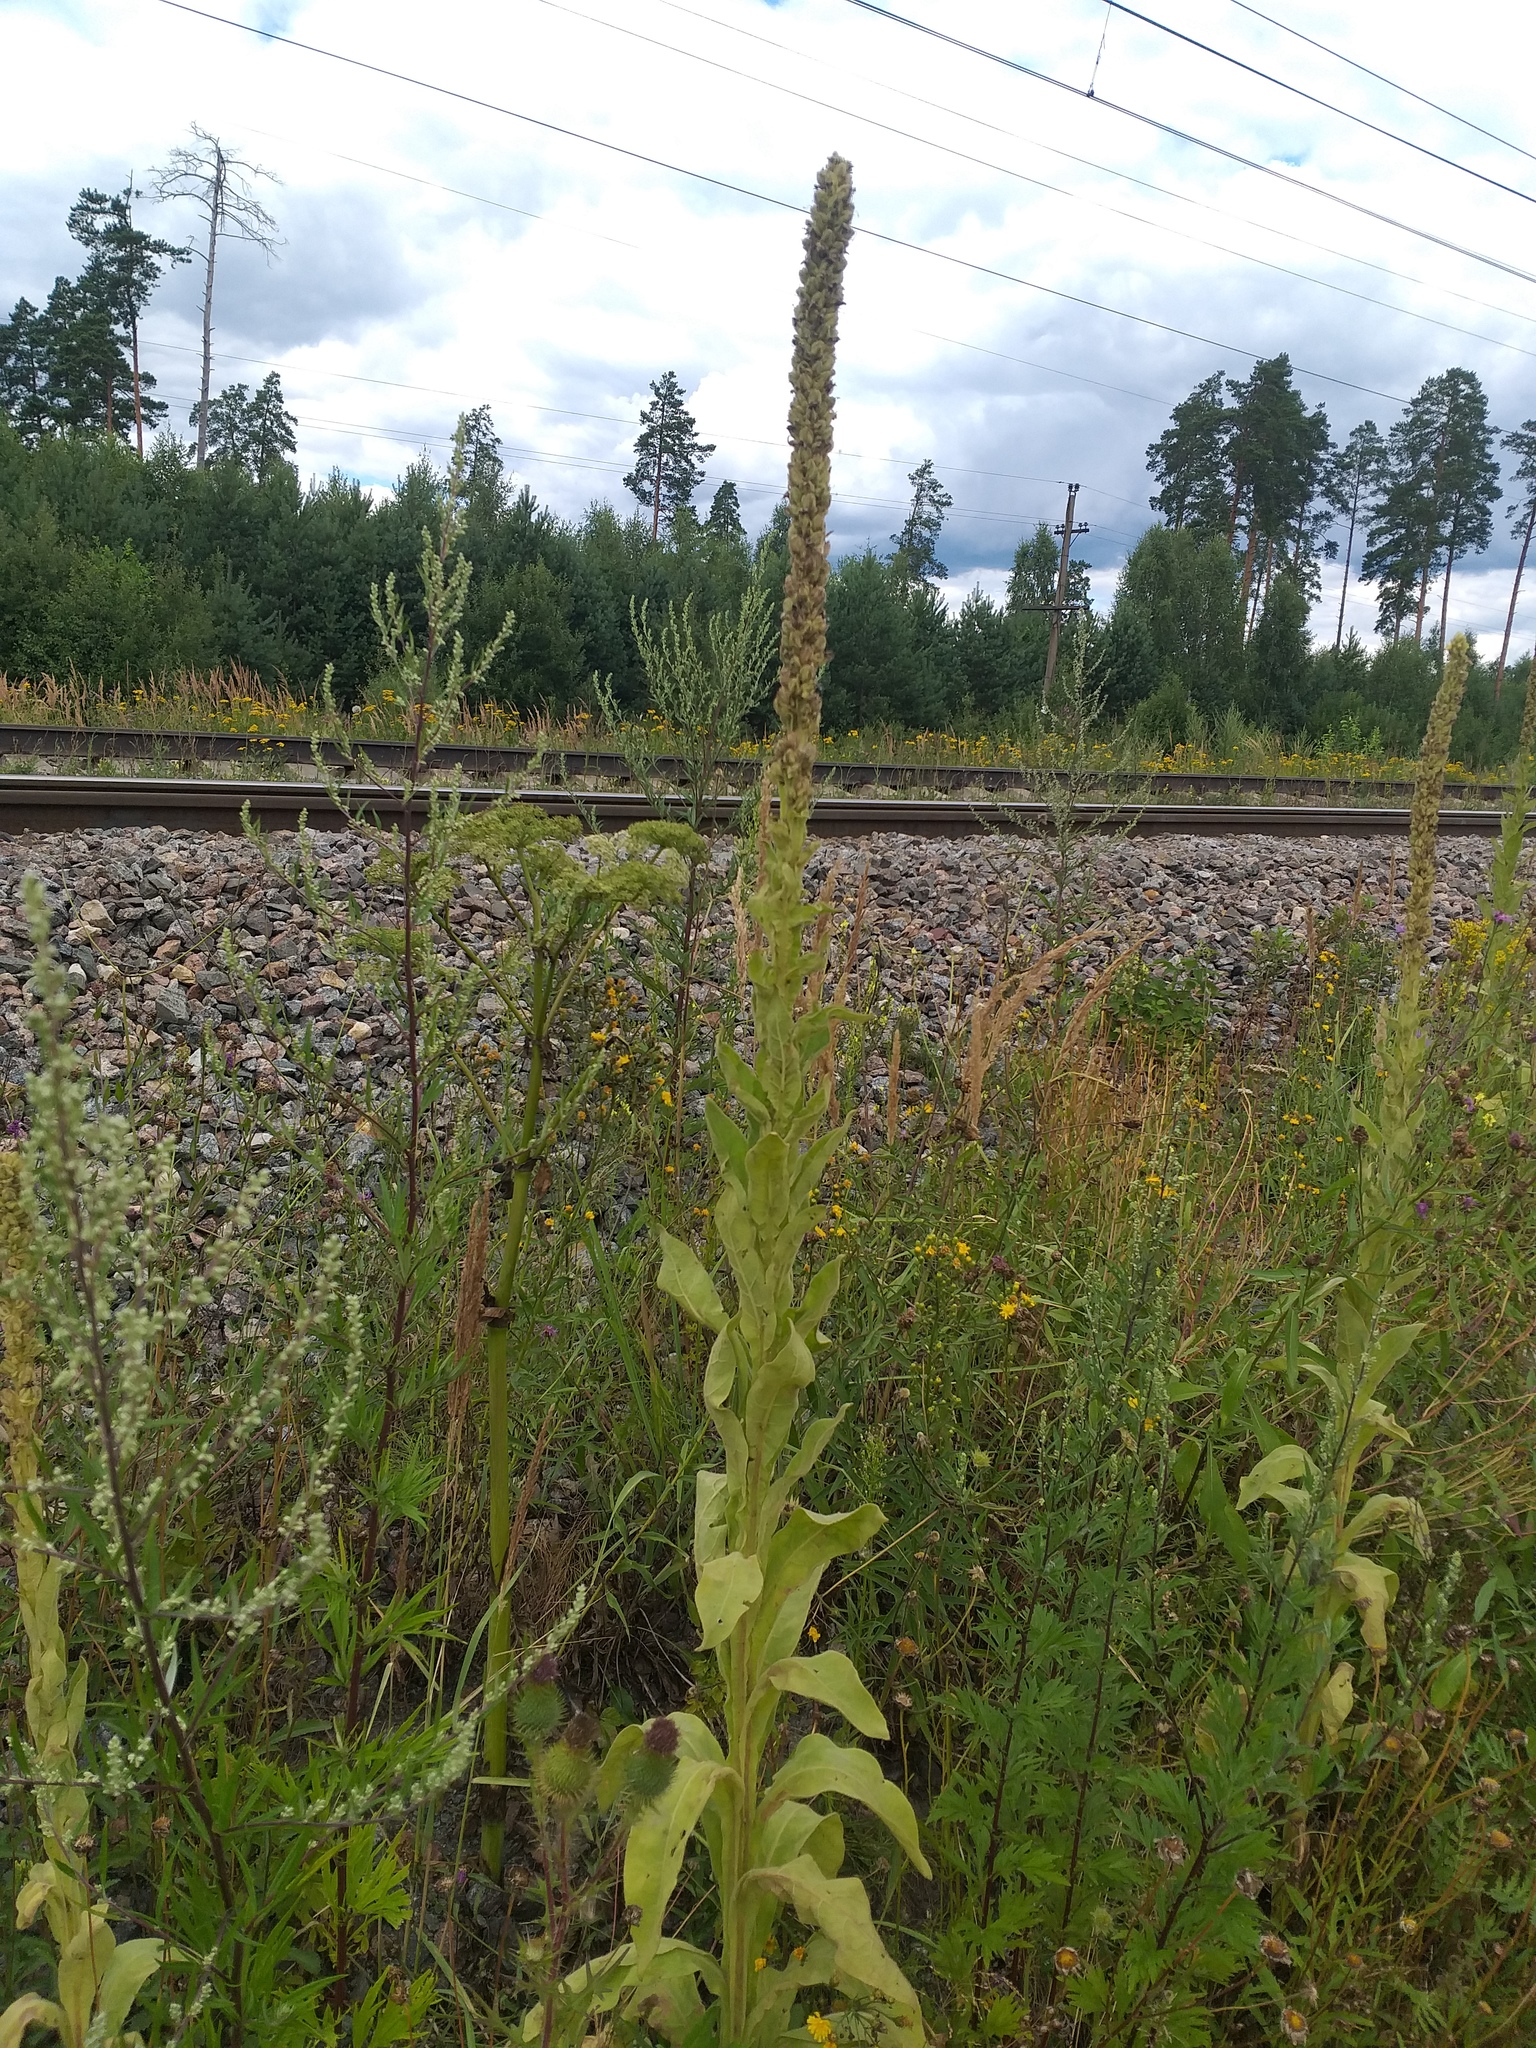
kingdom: Plantae
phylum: Tracheophyta
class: Magnoliopsida
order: Lamiales
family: Scrophulariaceae
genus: Verbascum
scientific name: Verbascum thapsus
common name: Common mullein
